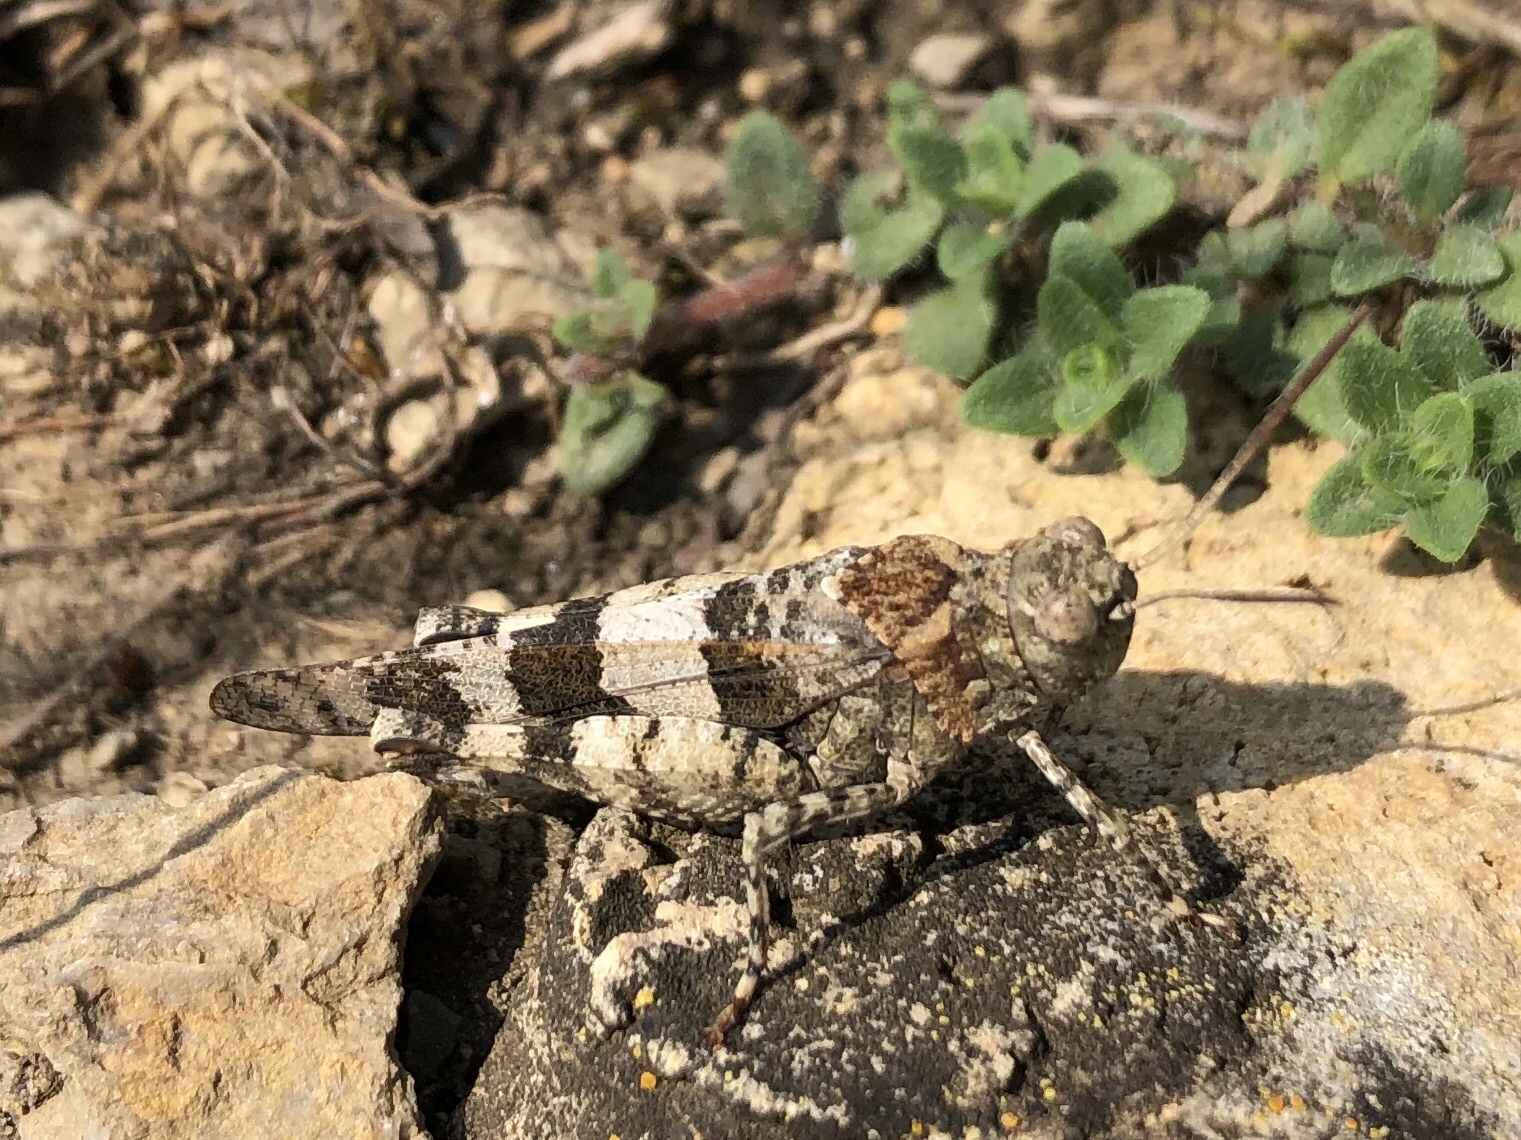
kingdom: Animalia
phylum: Arthropoda
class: Insecta
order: Orthoptera
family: Acrididae
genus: Oedipoda
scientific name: Oedipoda caerulescens
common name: Blue-winged grasshopper
